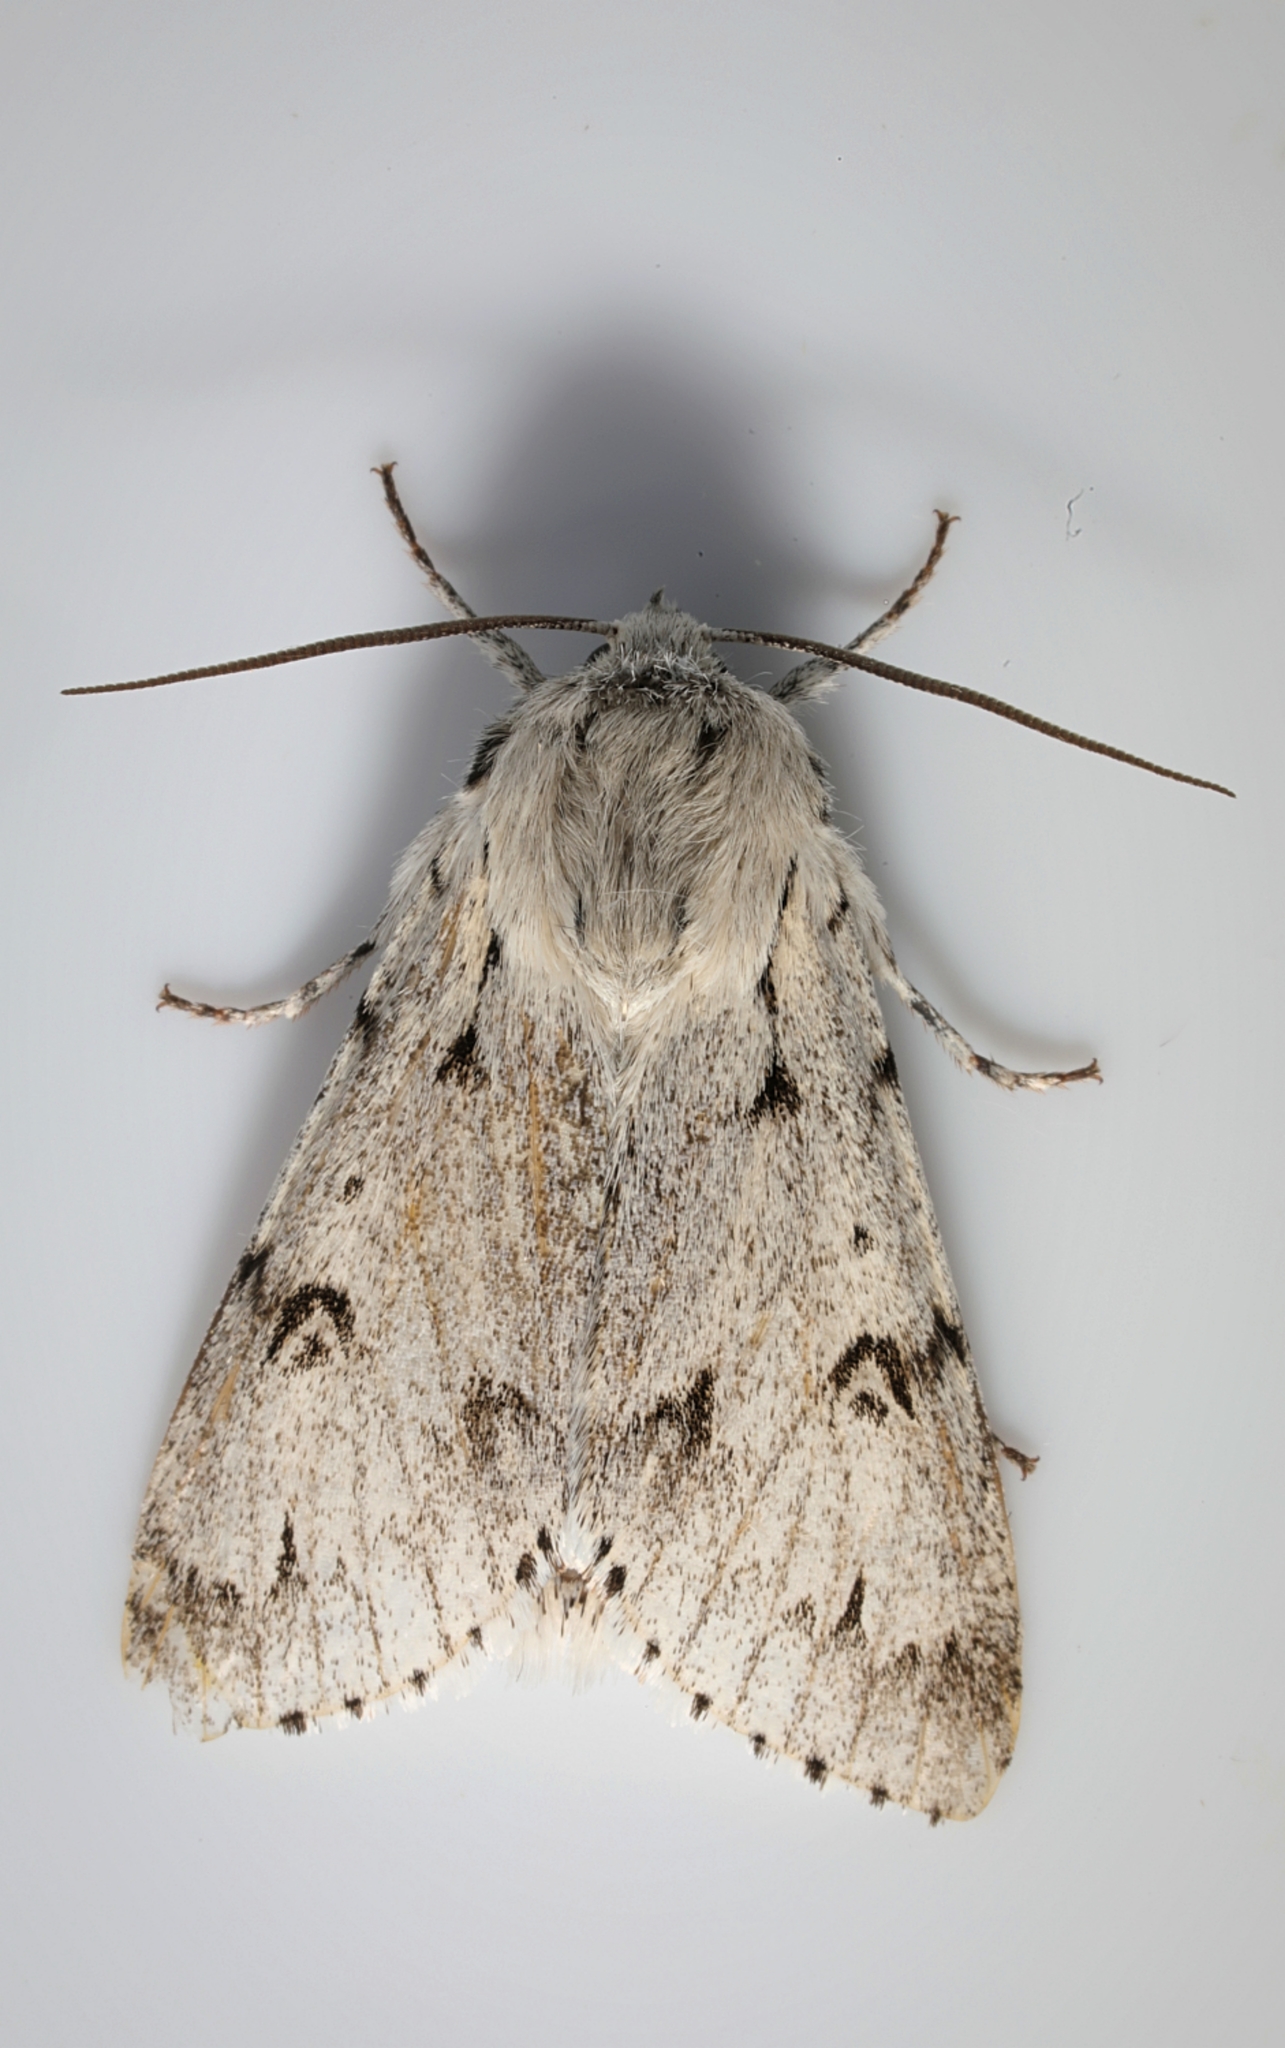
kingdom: Animalia
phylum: Arthropoda
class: Insecta
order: Lepidoptera
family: Noctuidae
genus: Acronicta
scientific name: Acronicta leporina
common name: Miller
